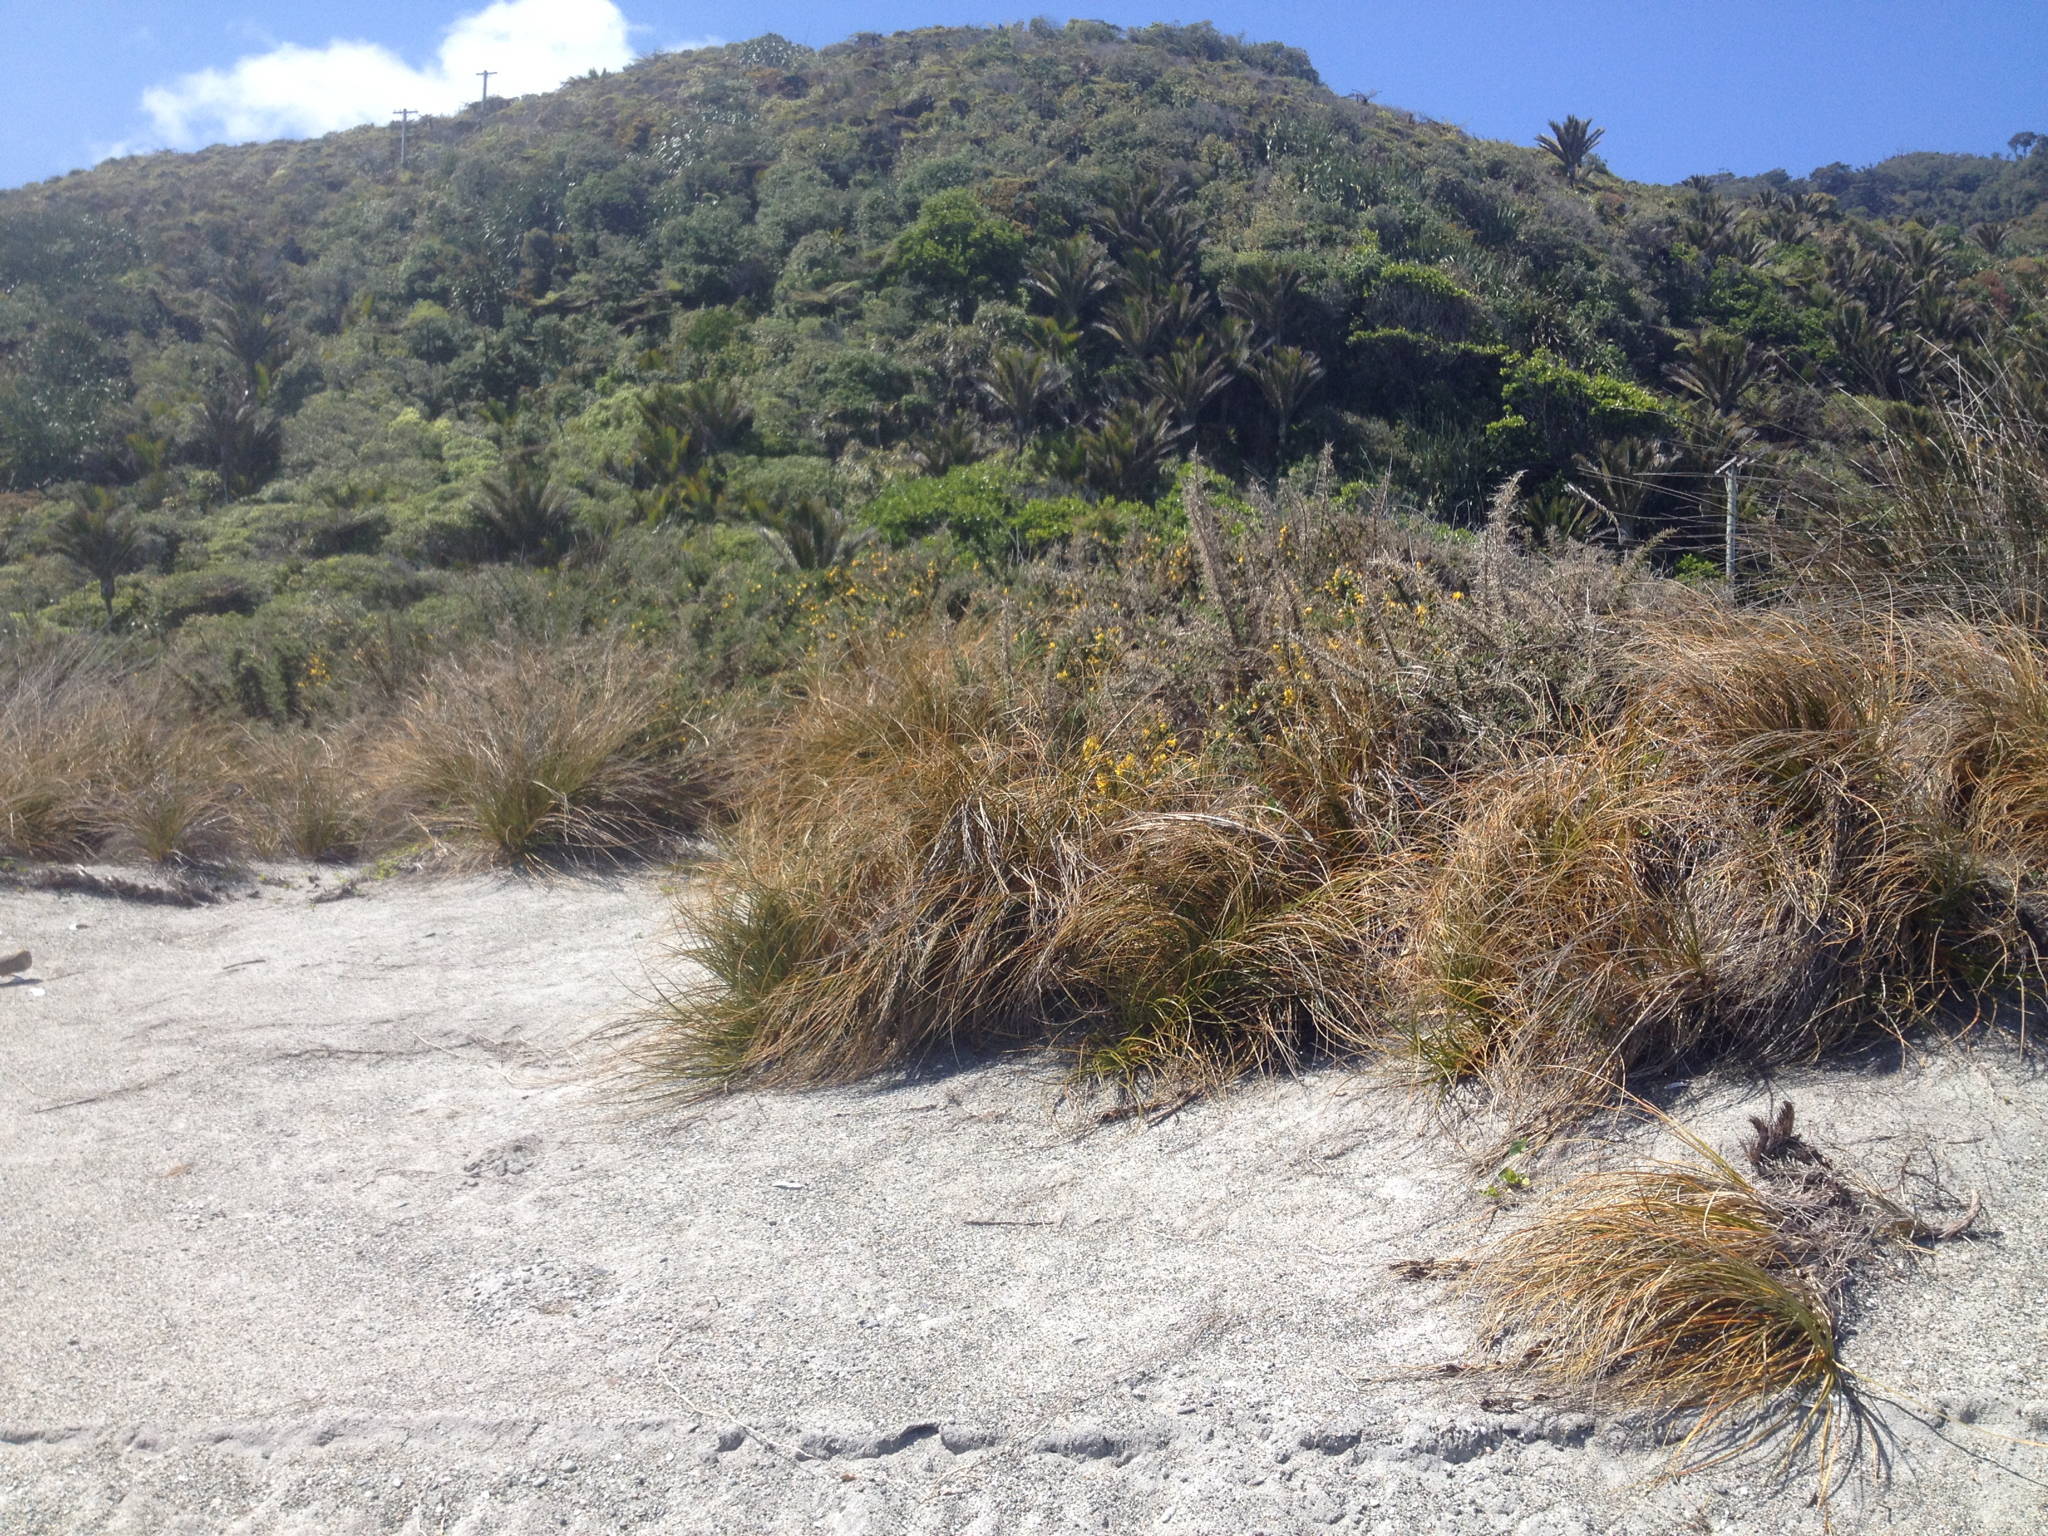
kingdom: Plantae
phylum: Tracheophyta
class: Magnoliopsida
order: Fabales
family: Fabaceae
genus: Ulex
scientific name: Ulex europaeus
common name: Common gorse
